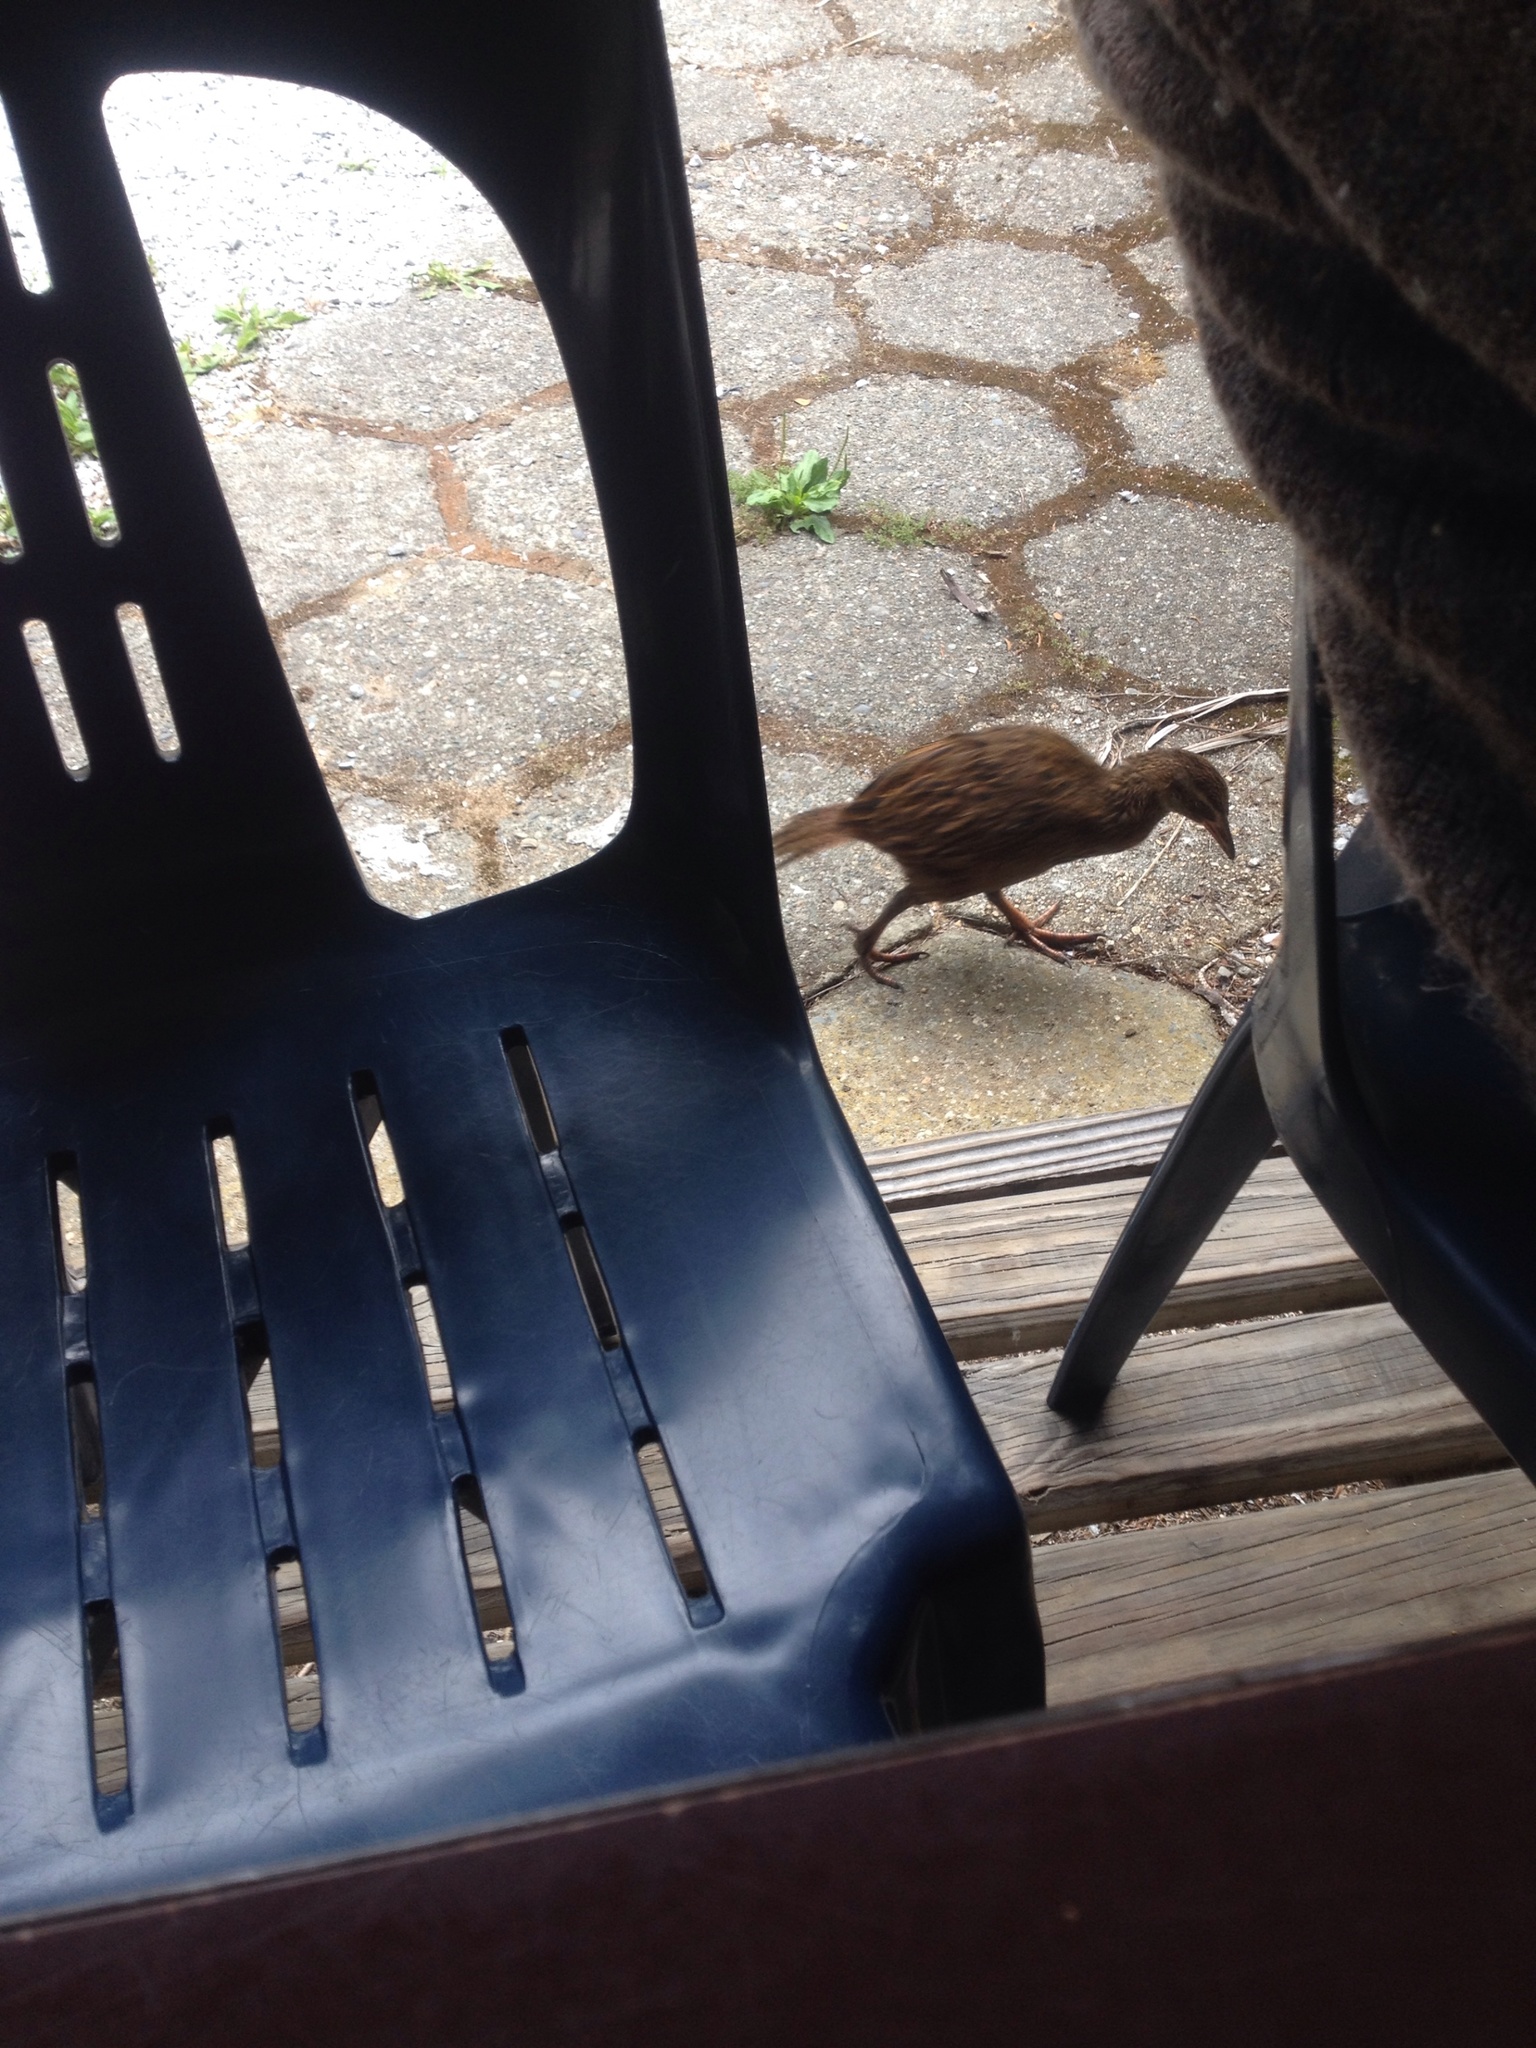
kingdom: Animalia
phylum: Chordata
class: Aves
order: Gruiformes
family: Rallidae
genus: Gallirallus
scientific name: Gallirallus australis
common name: Weka
